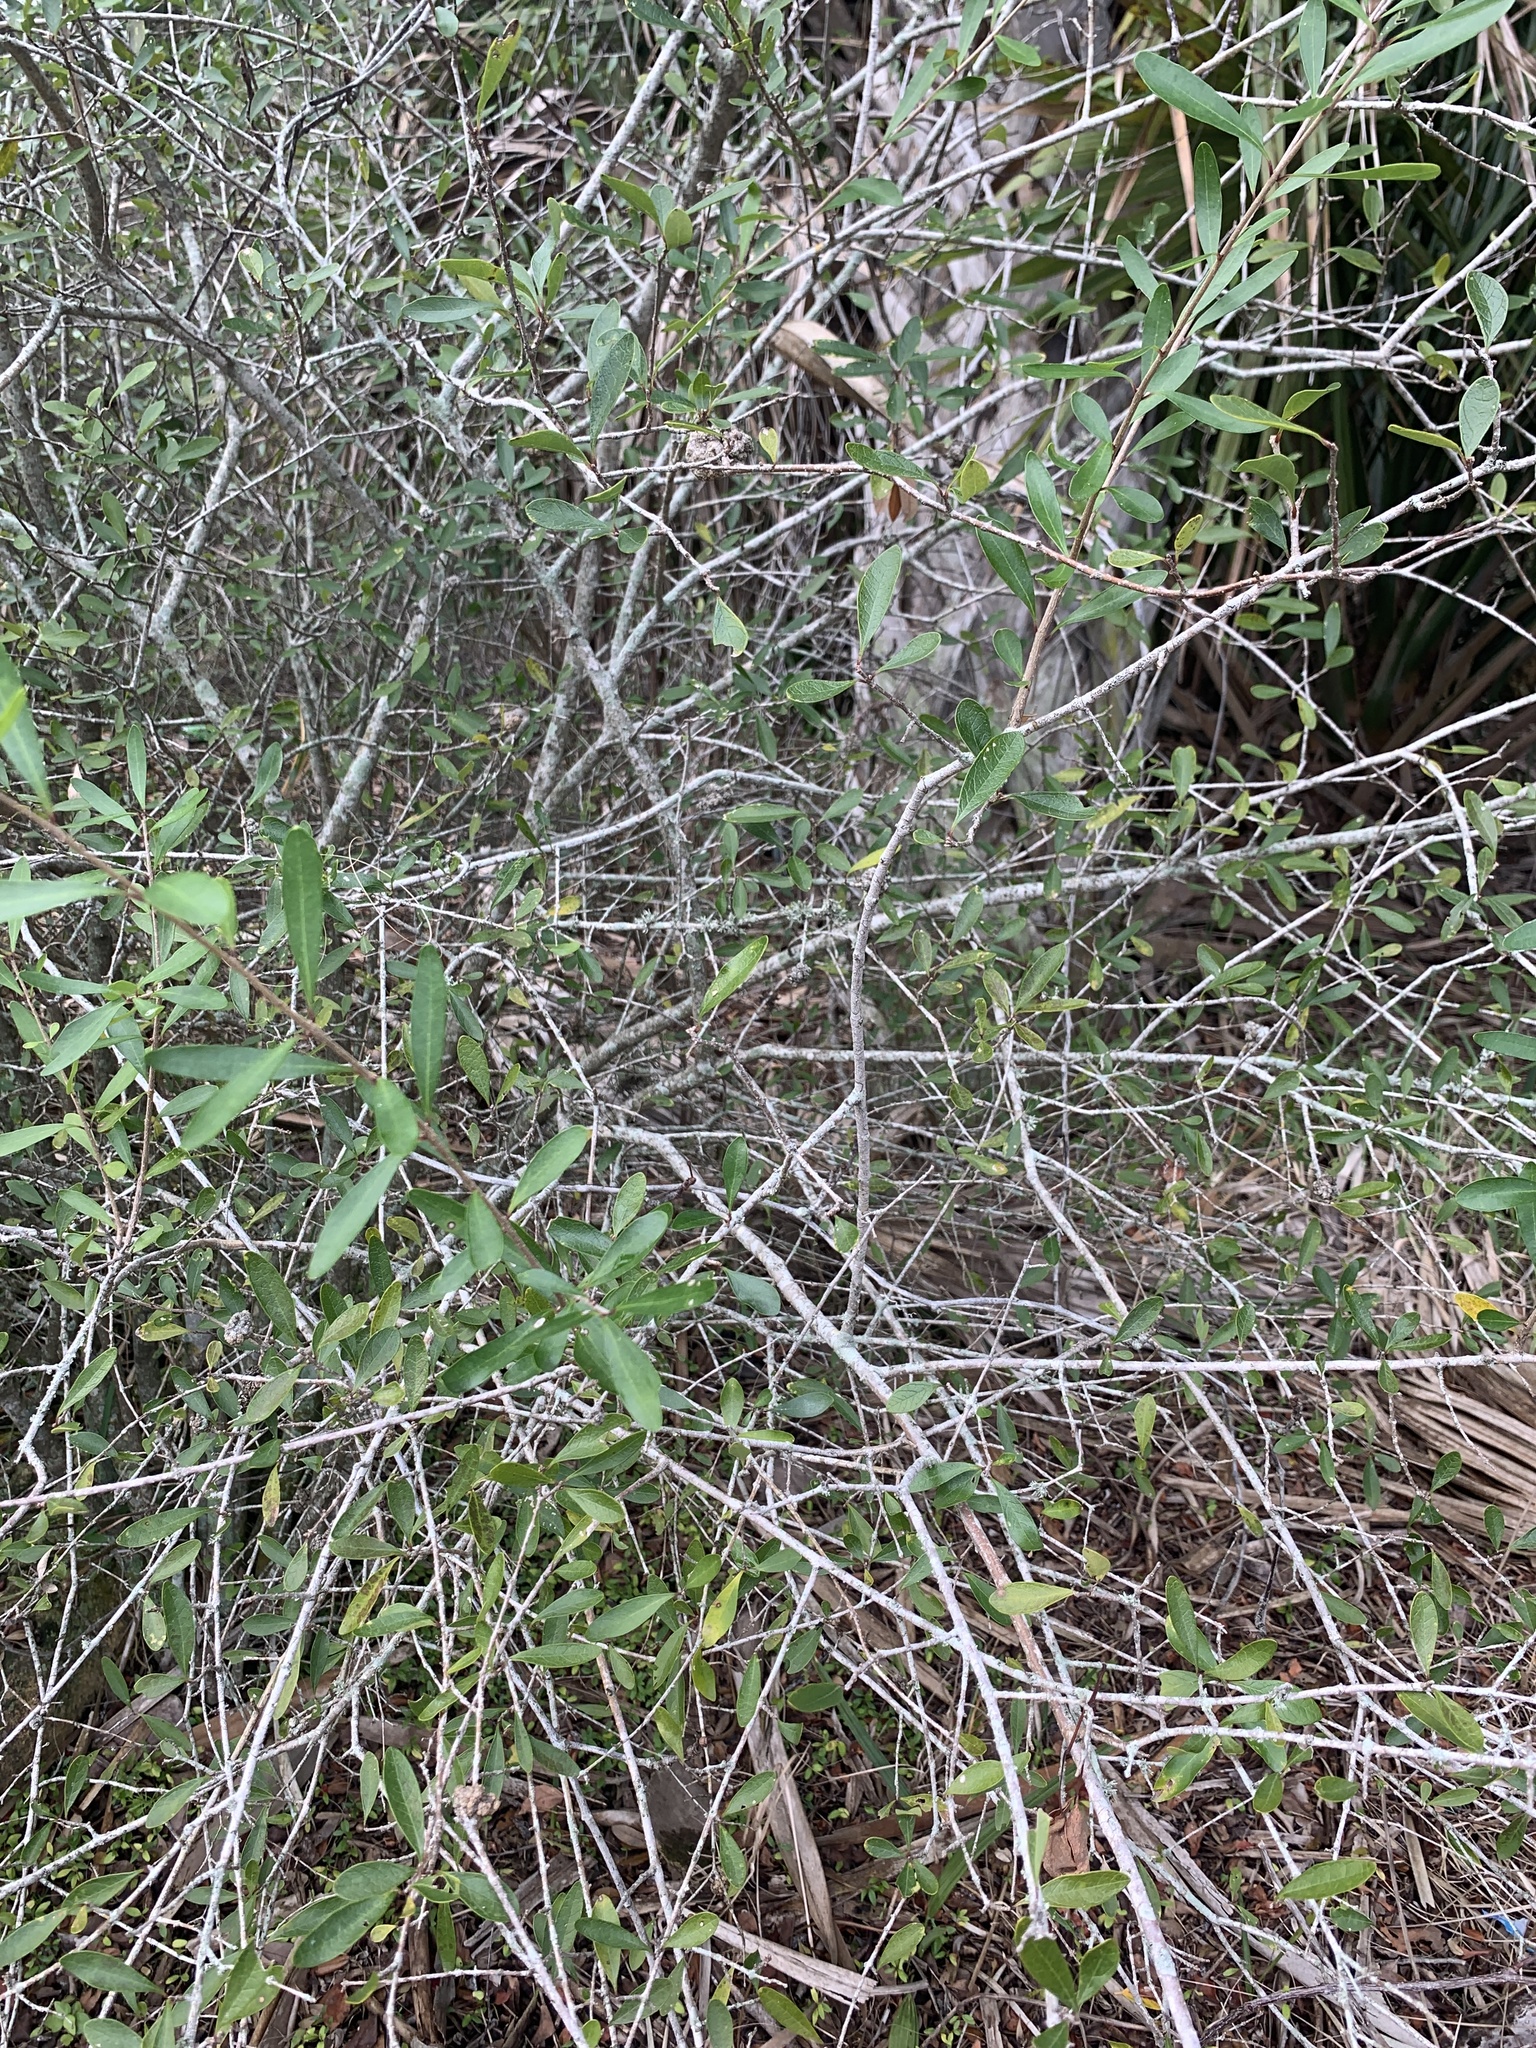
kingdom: Plantae
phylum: Tracheophyta
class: Magnoliopsida
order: Lamiales
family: Oleaceae
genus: Forestiera
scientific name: Forestiera segregata
